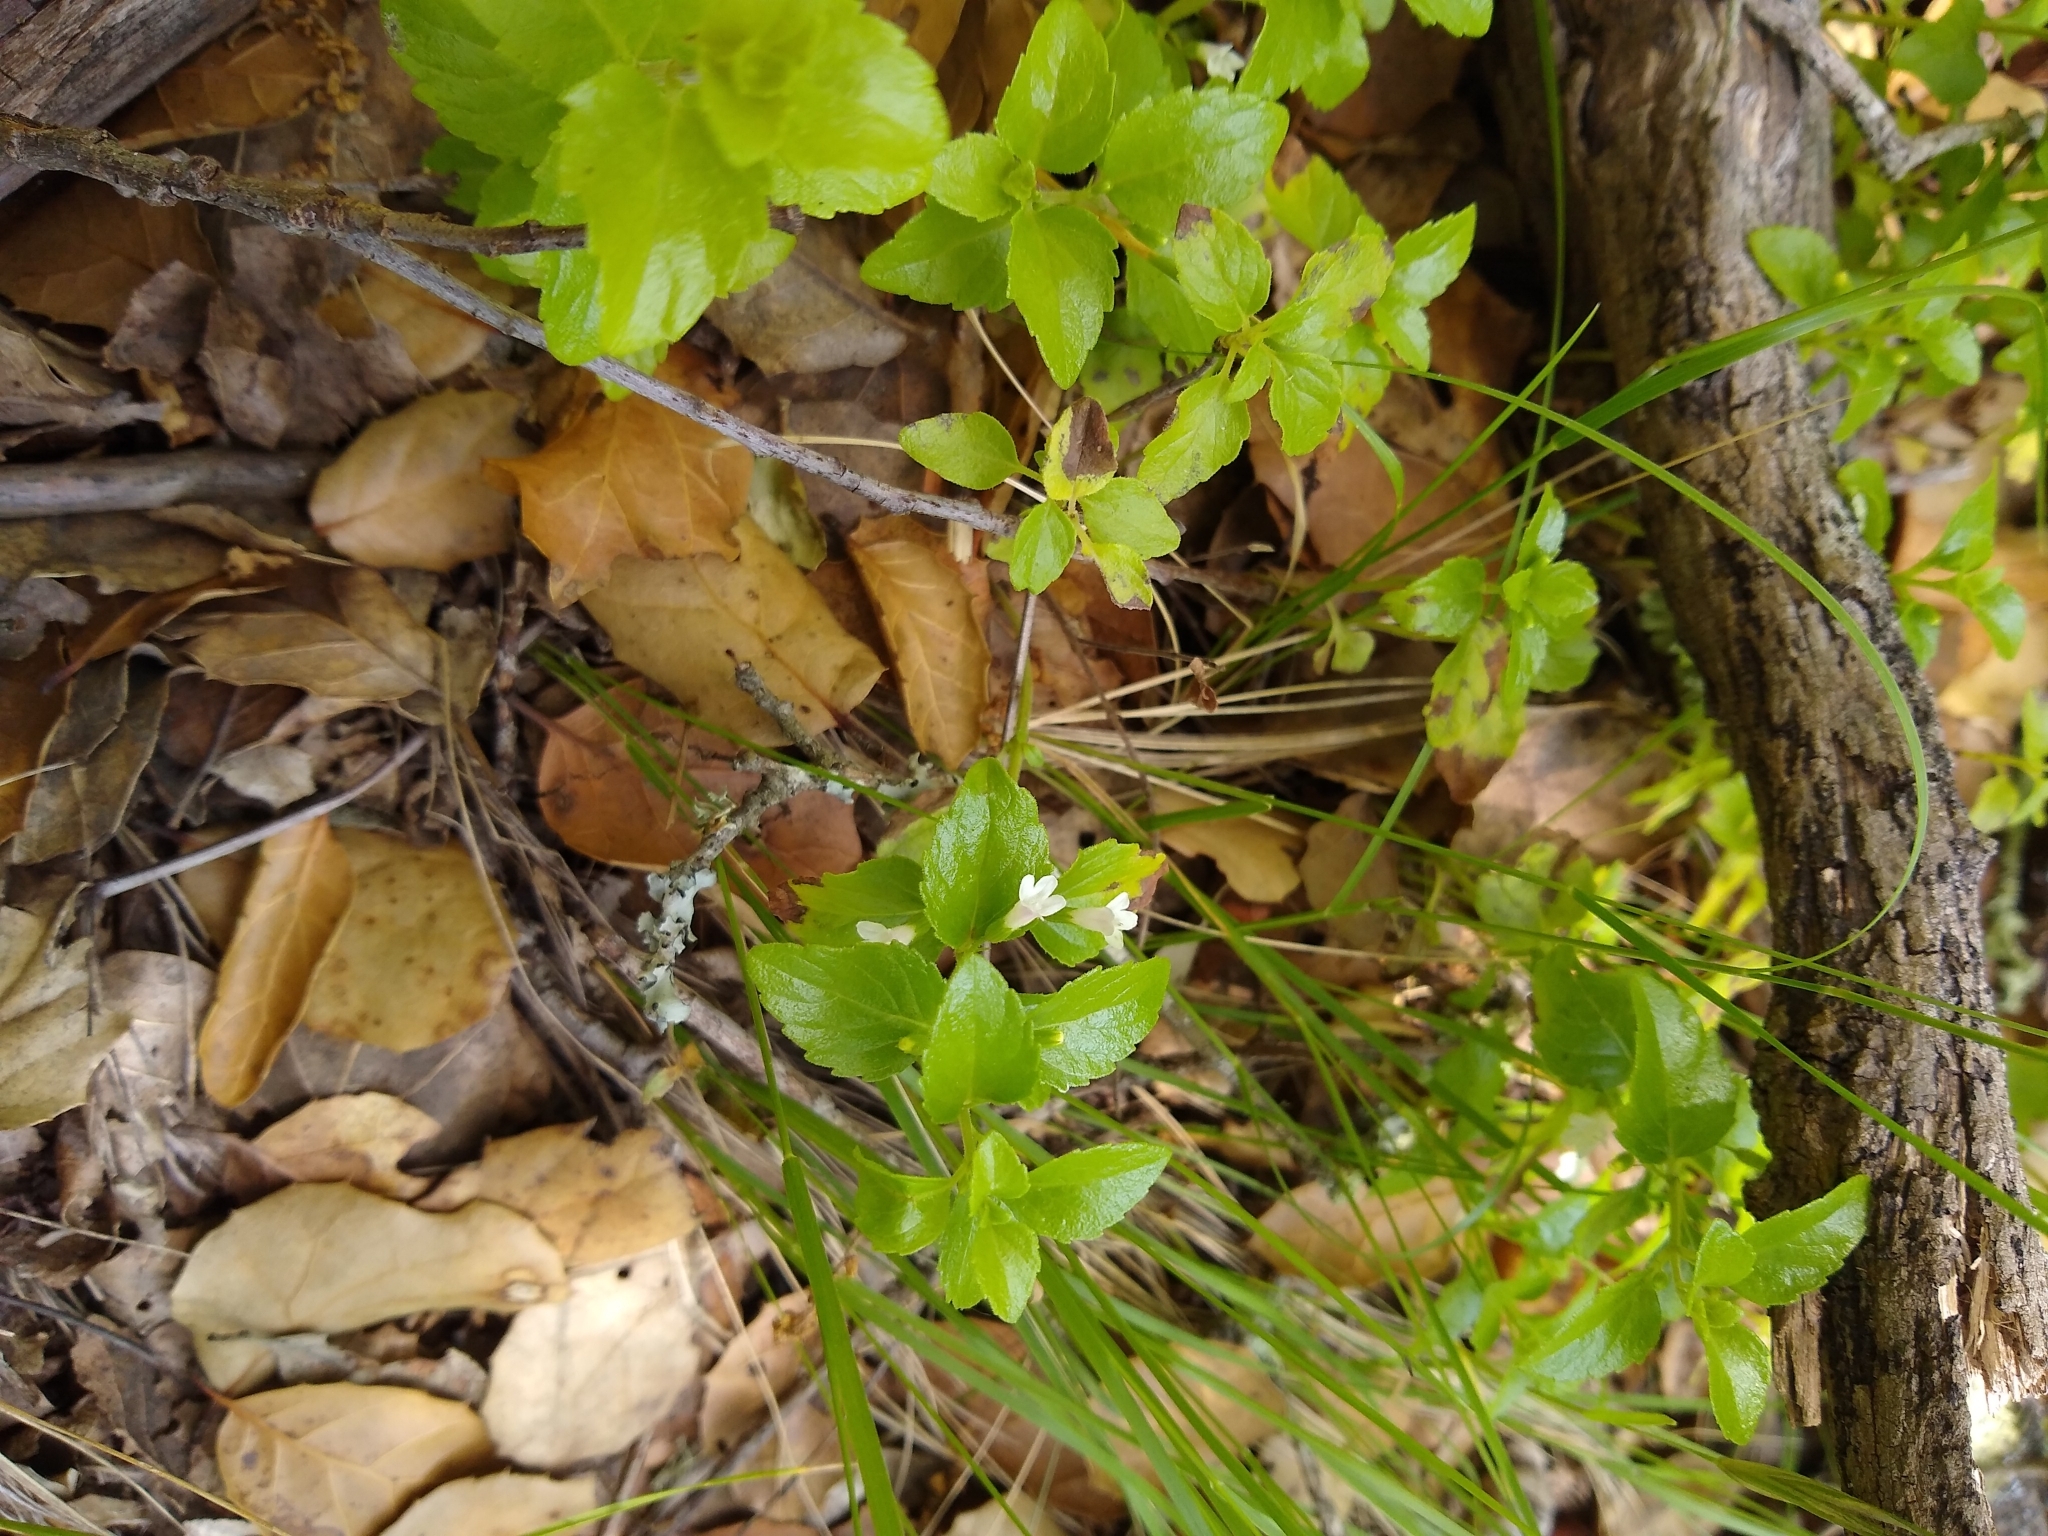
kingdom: Plantae
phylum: Tracheophyta
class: Magnoliopsida
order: Lamiales
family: Lamiaceae
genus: Micromeria
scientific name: Micromeria douglasii
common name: Yerba buena
